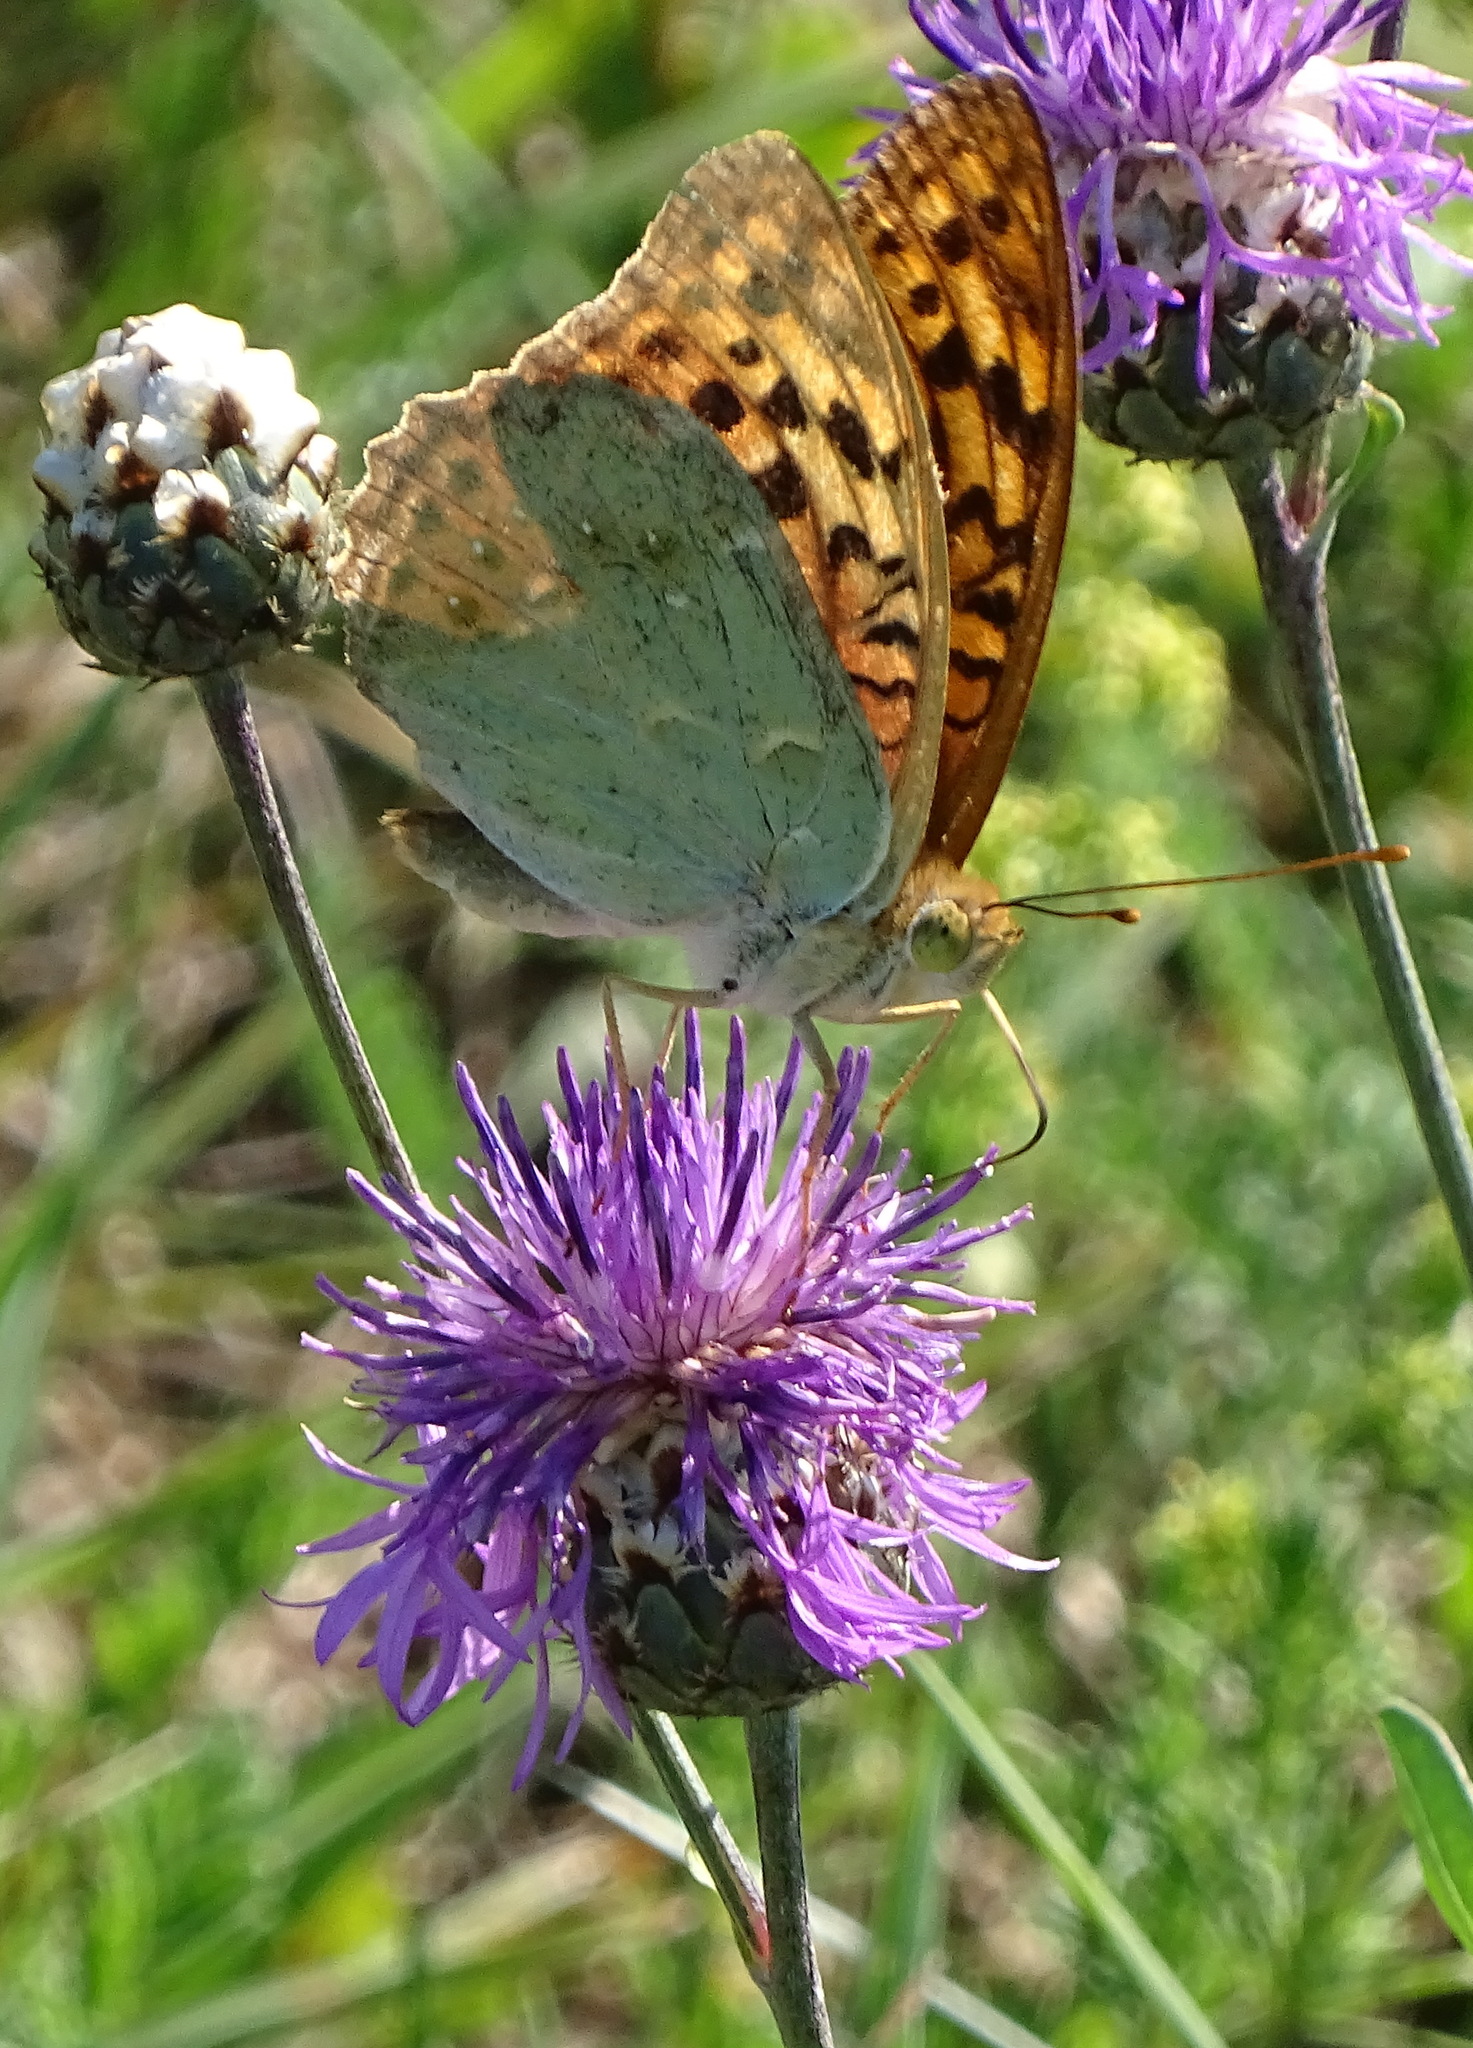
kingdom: Animalia
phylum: Arthropoda
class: Insecta
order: Lepidoptera
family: Nymphalidae
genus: Damora
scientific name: Damora pandora
